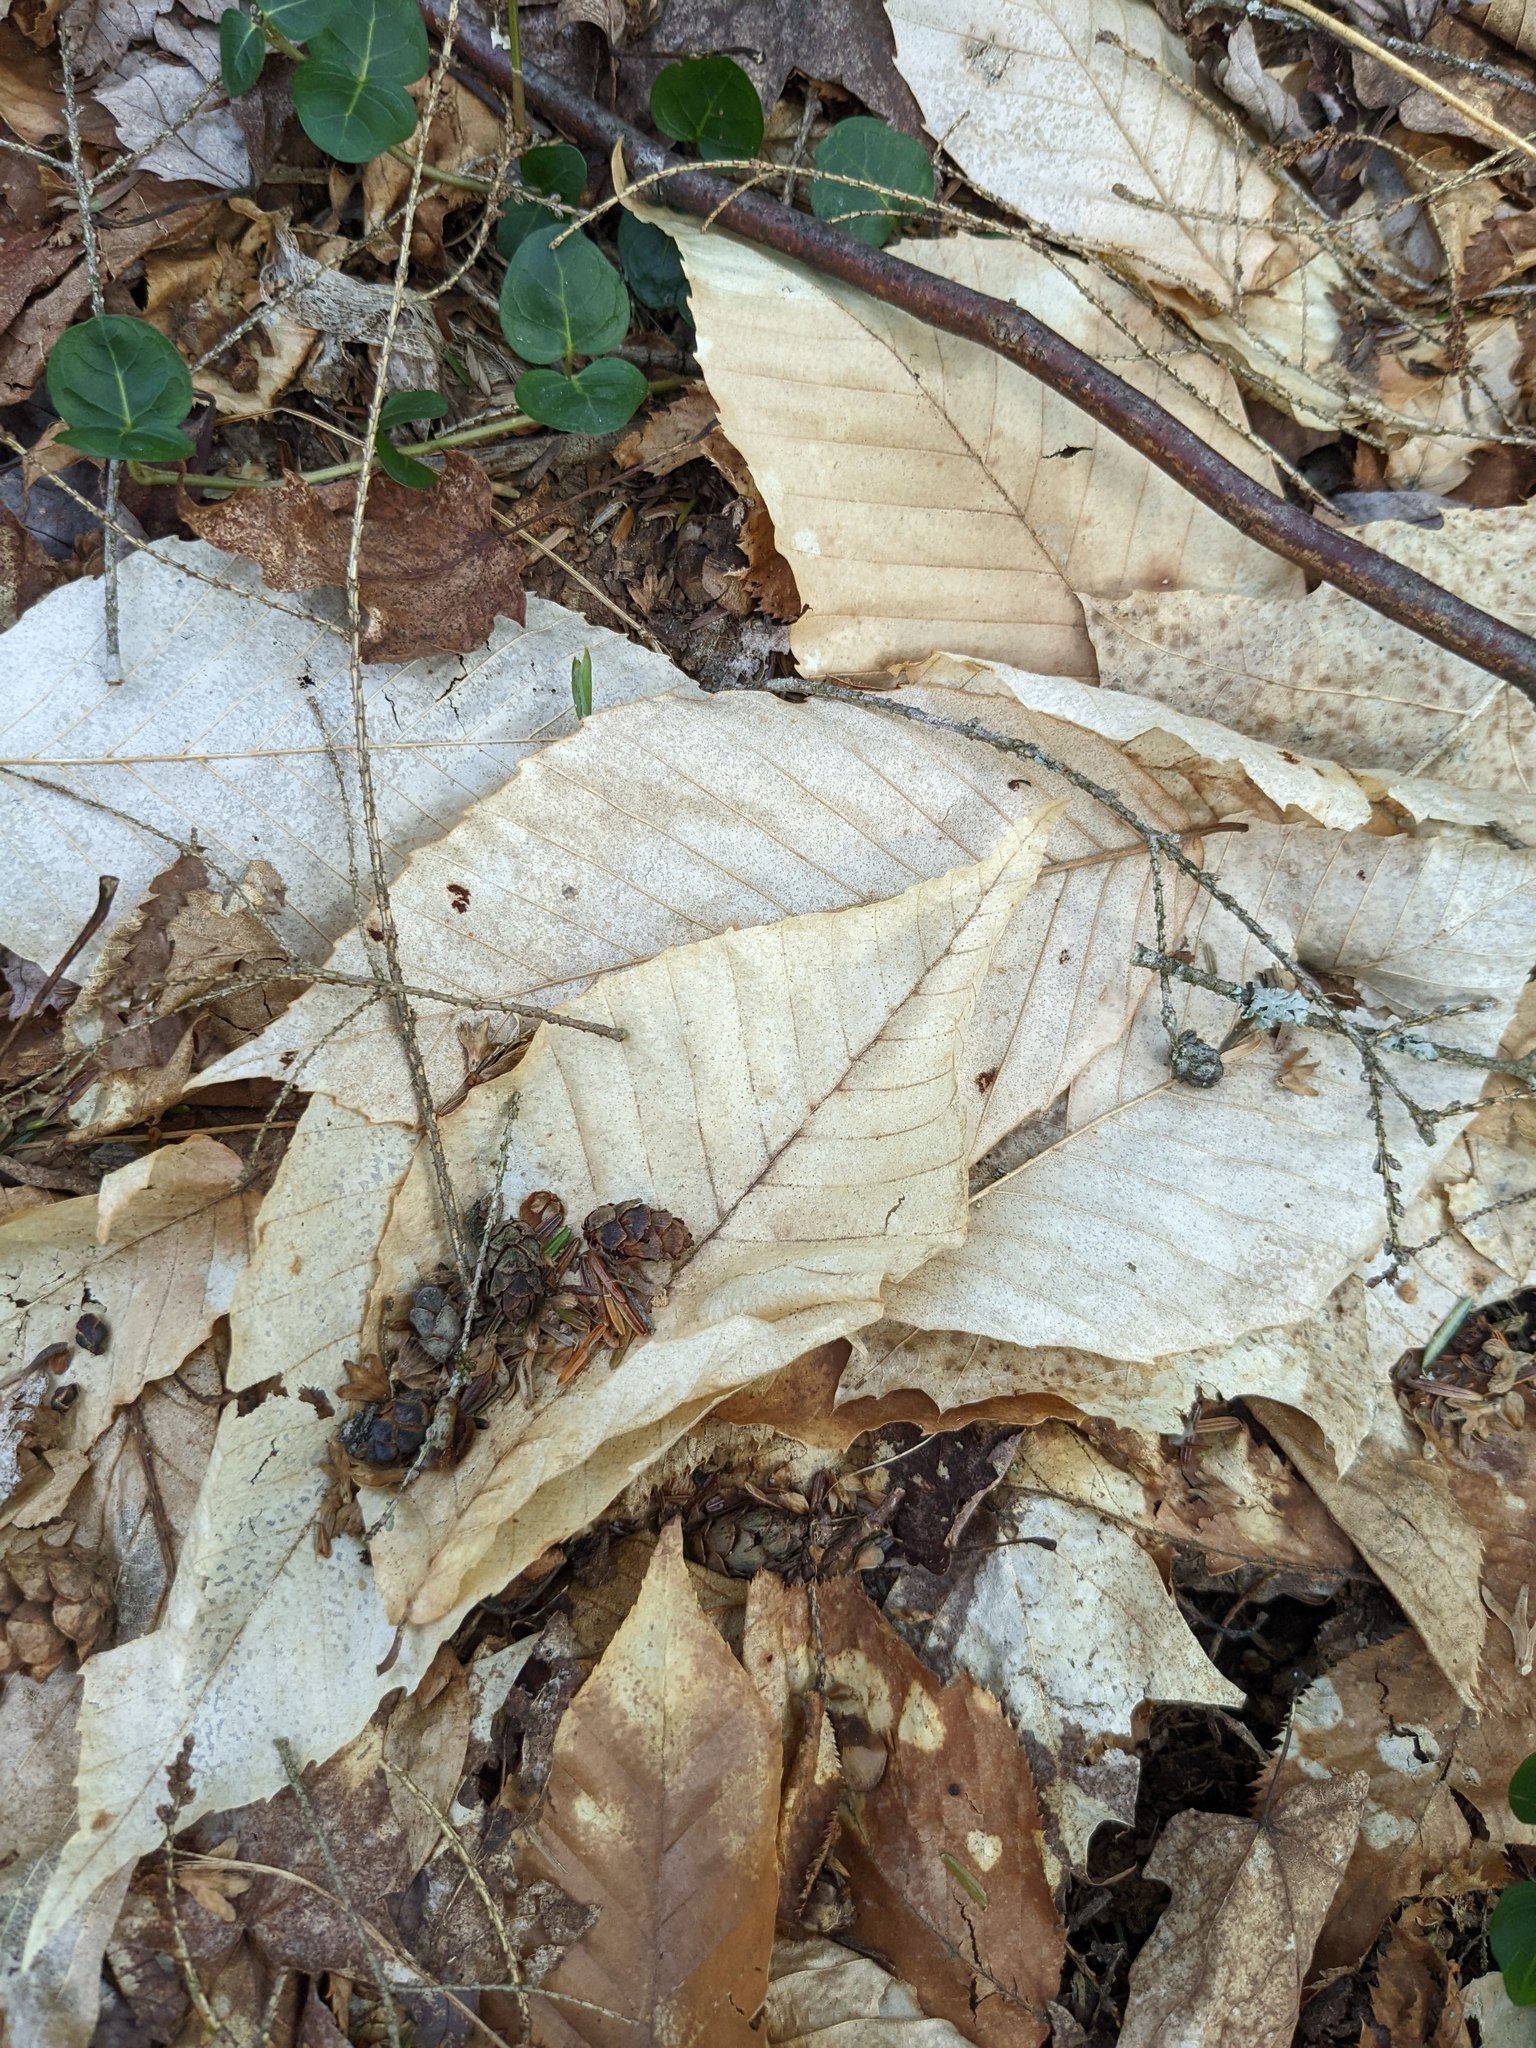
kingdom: Plantae
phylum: Tracheophyta
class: Magnoliopsida
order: Fagales
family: Fagaceae
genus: Fagus
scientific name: Fagus grandifolia
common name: American beech
